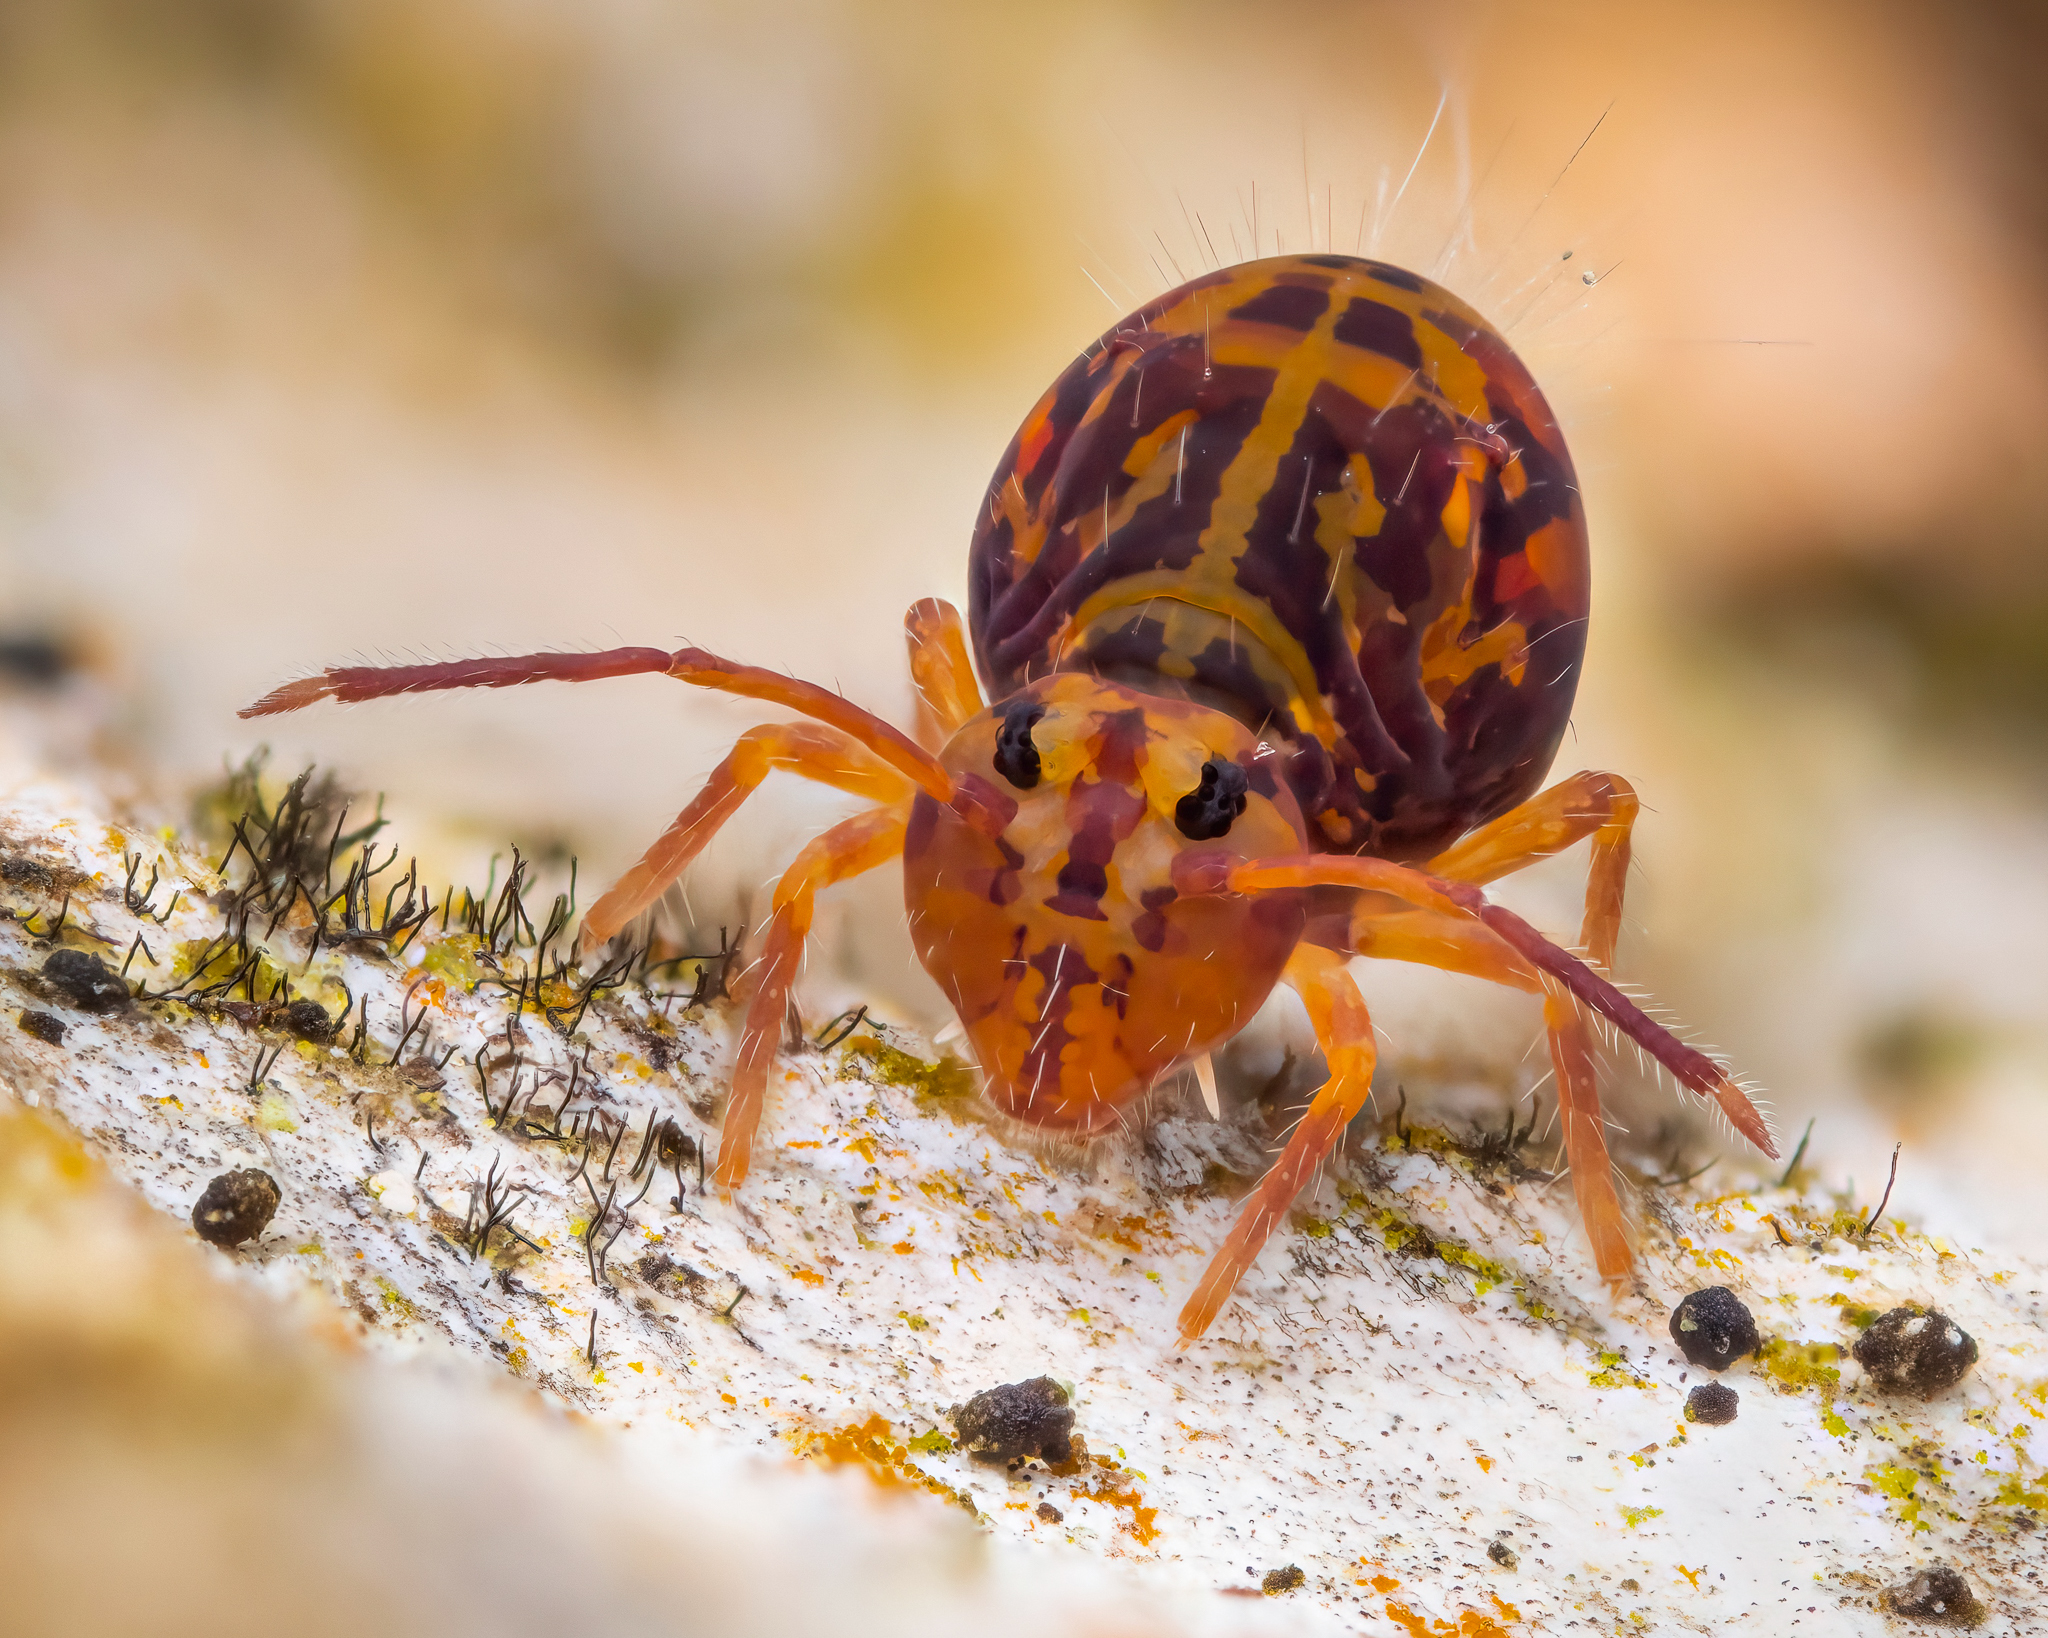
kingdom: Animalia
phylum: Arthropoda
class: Collembola
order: Symphypleona
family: Dicyrtomidae
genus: Dicyrtomina
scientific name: Dicyrtomina ornata
